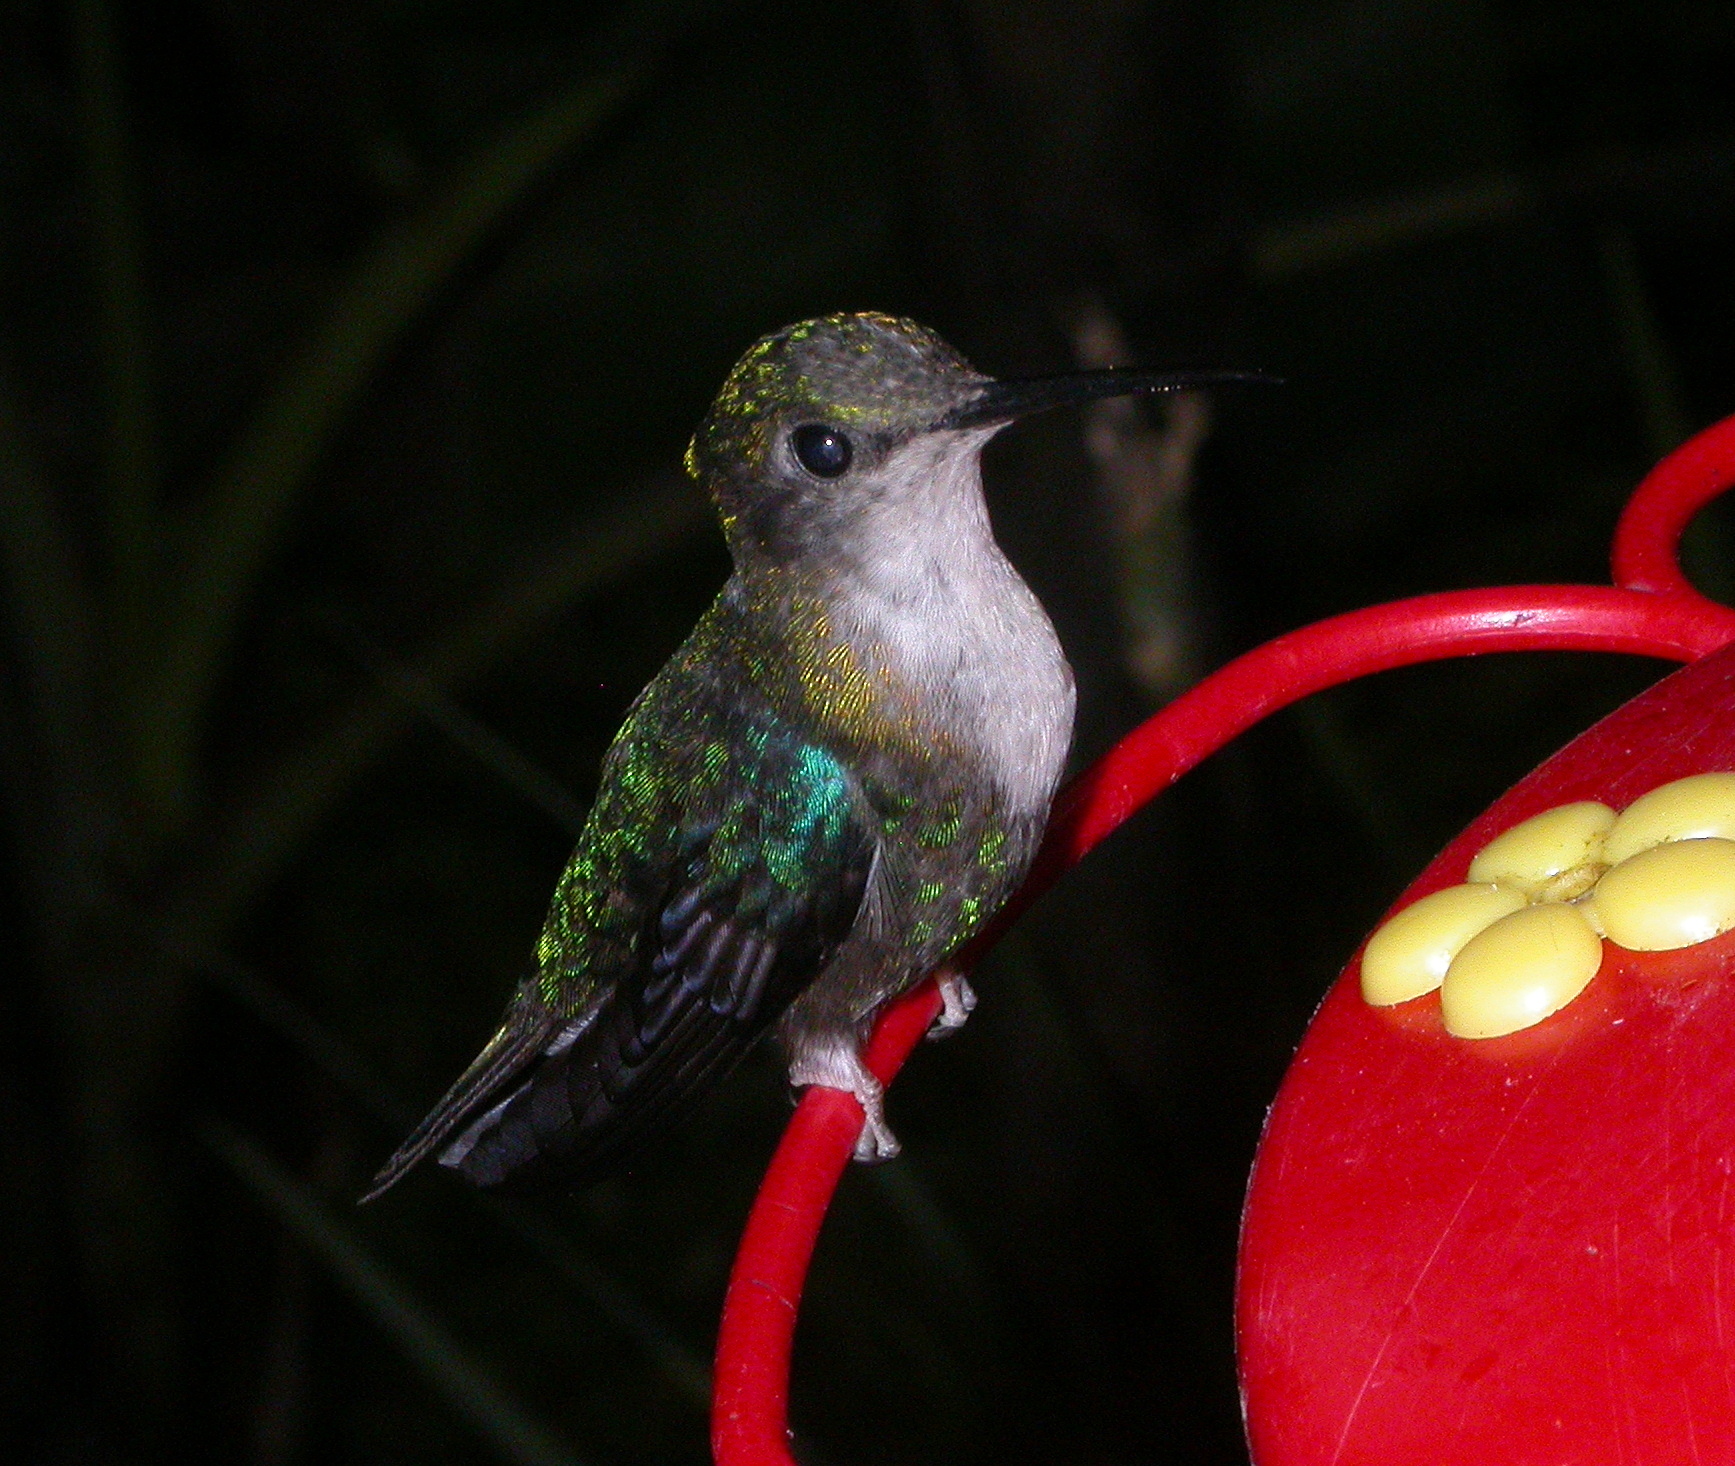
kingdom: Animalia
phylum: Chordata
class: Aves
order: Apodiformes
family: Trochilidae
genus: Thalurania
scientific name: Thalurania colombica
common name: Crowned woodnymph
